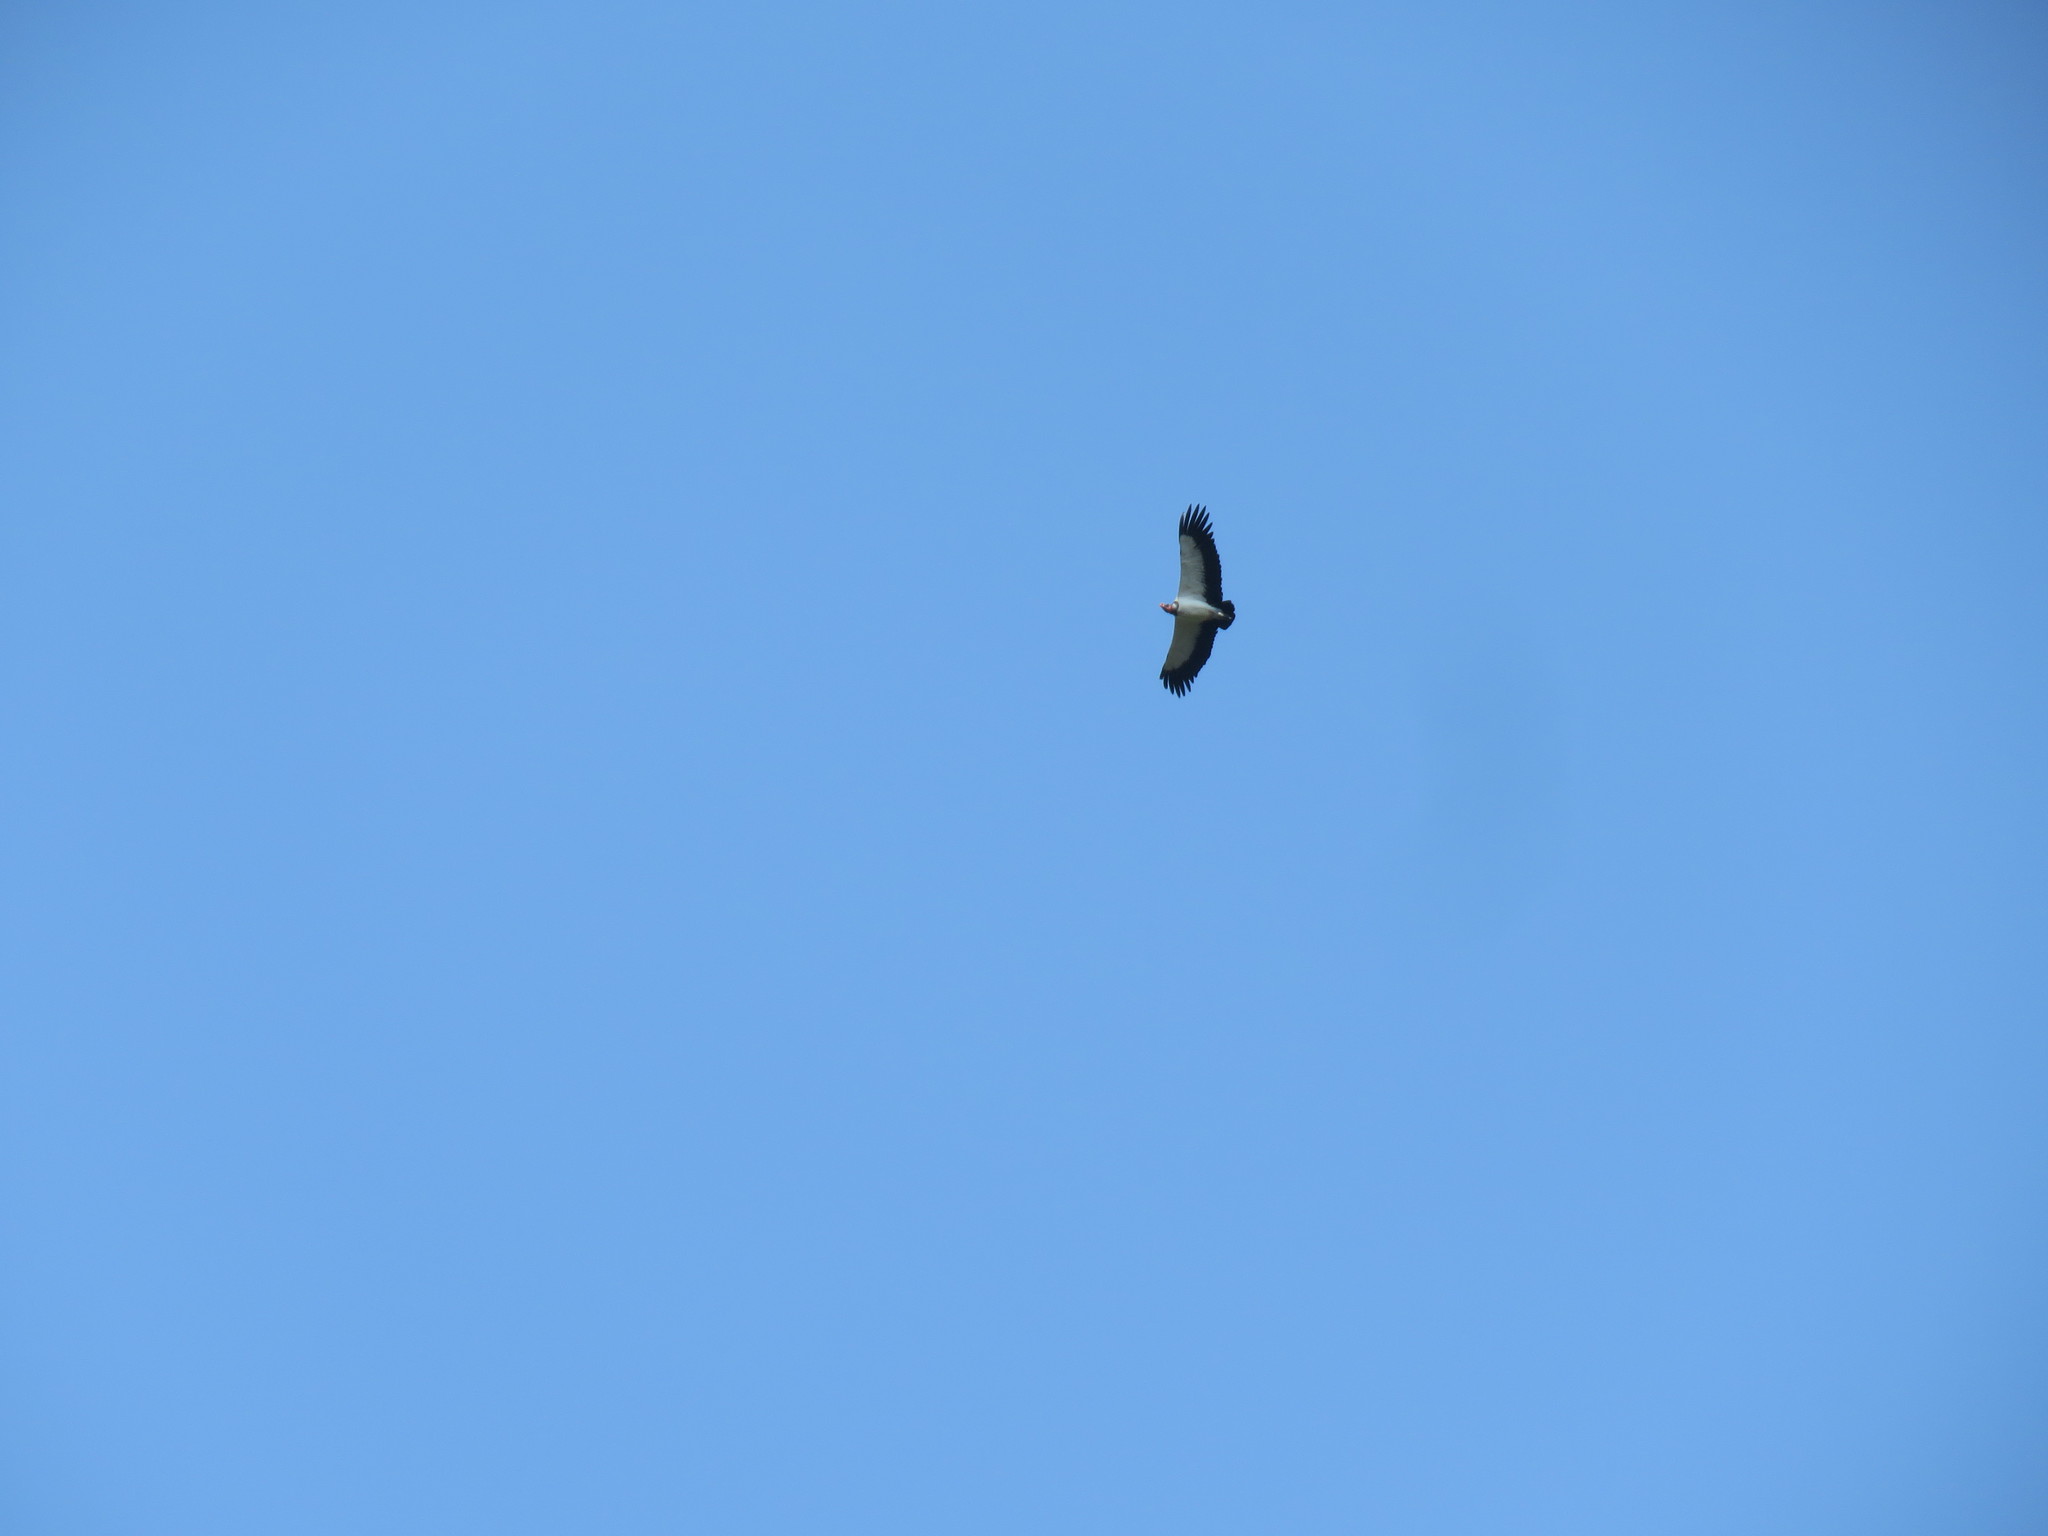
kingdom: Animalia
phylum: Chordata
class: Aves
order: Accipitriformes
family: Cathartidae
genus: Sarcoramphus
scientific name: Sarcoramphus papa
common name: King vulture
